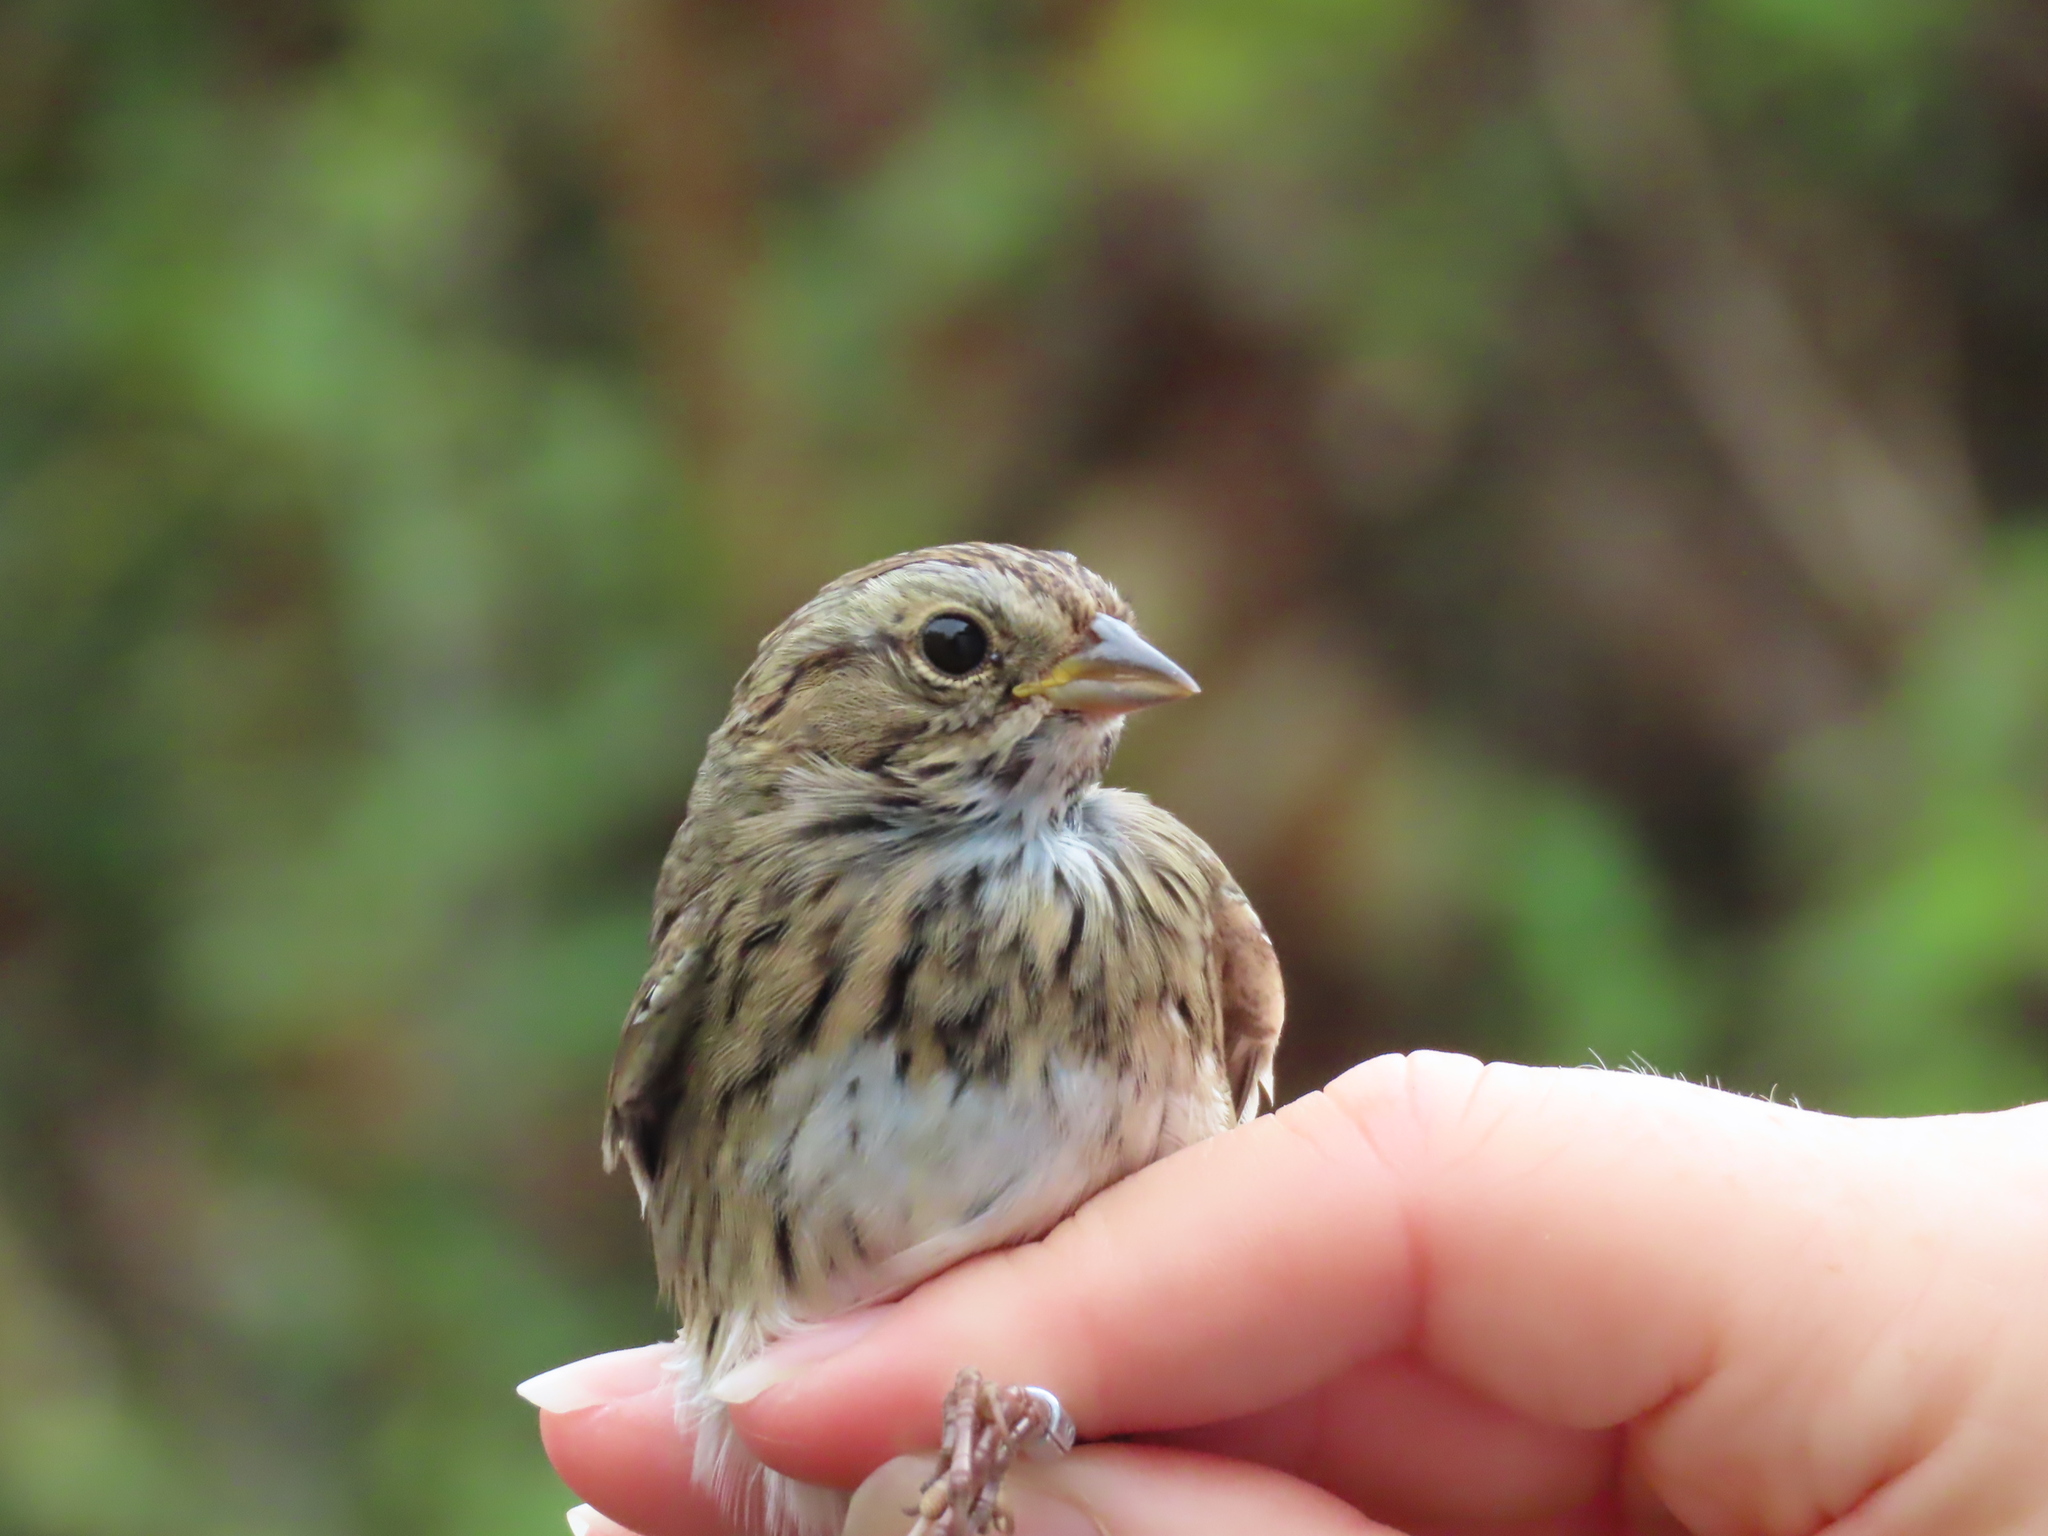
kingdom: Animalia
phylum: Chordata
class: Aves
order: Passeriformes
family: Passerellidae
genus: Melospiza
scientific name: Melospiza lincolnii
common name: Lincoln's sparrow
